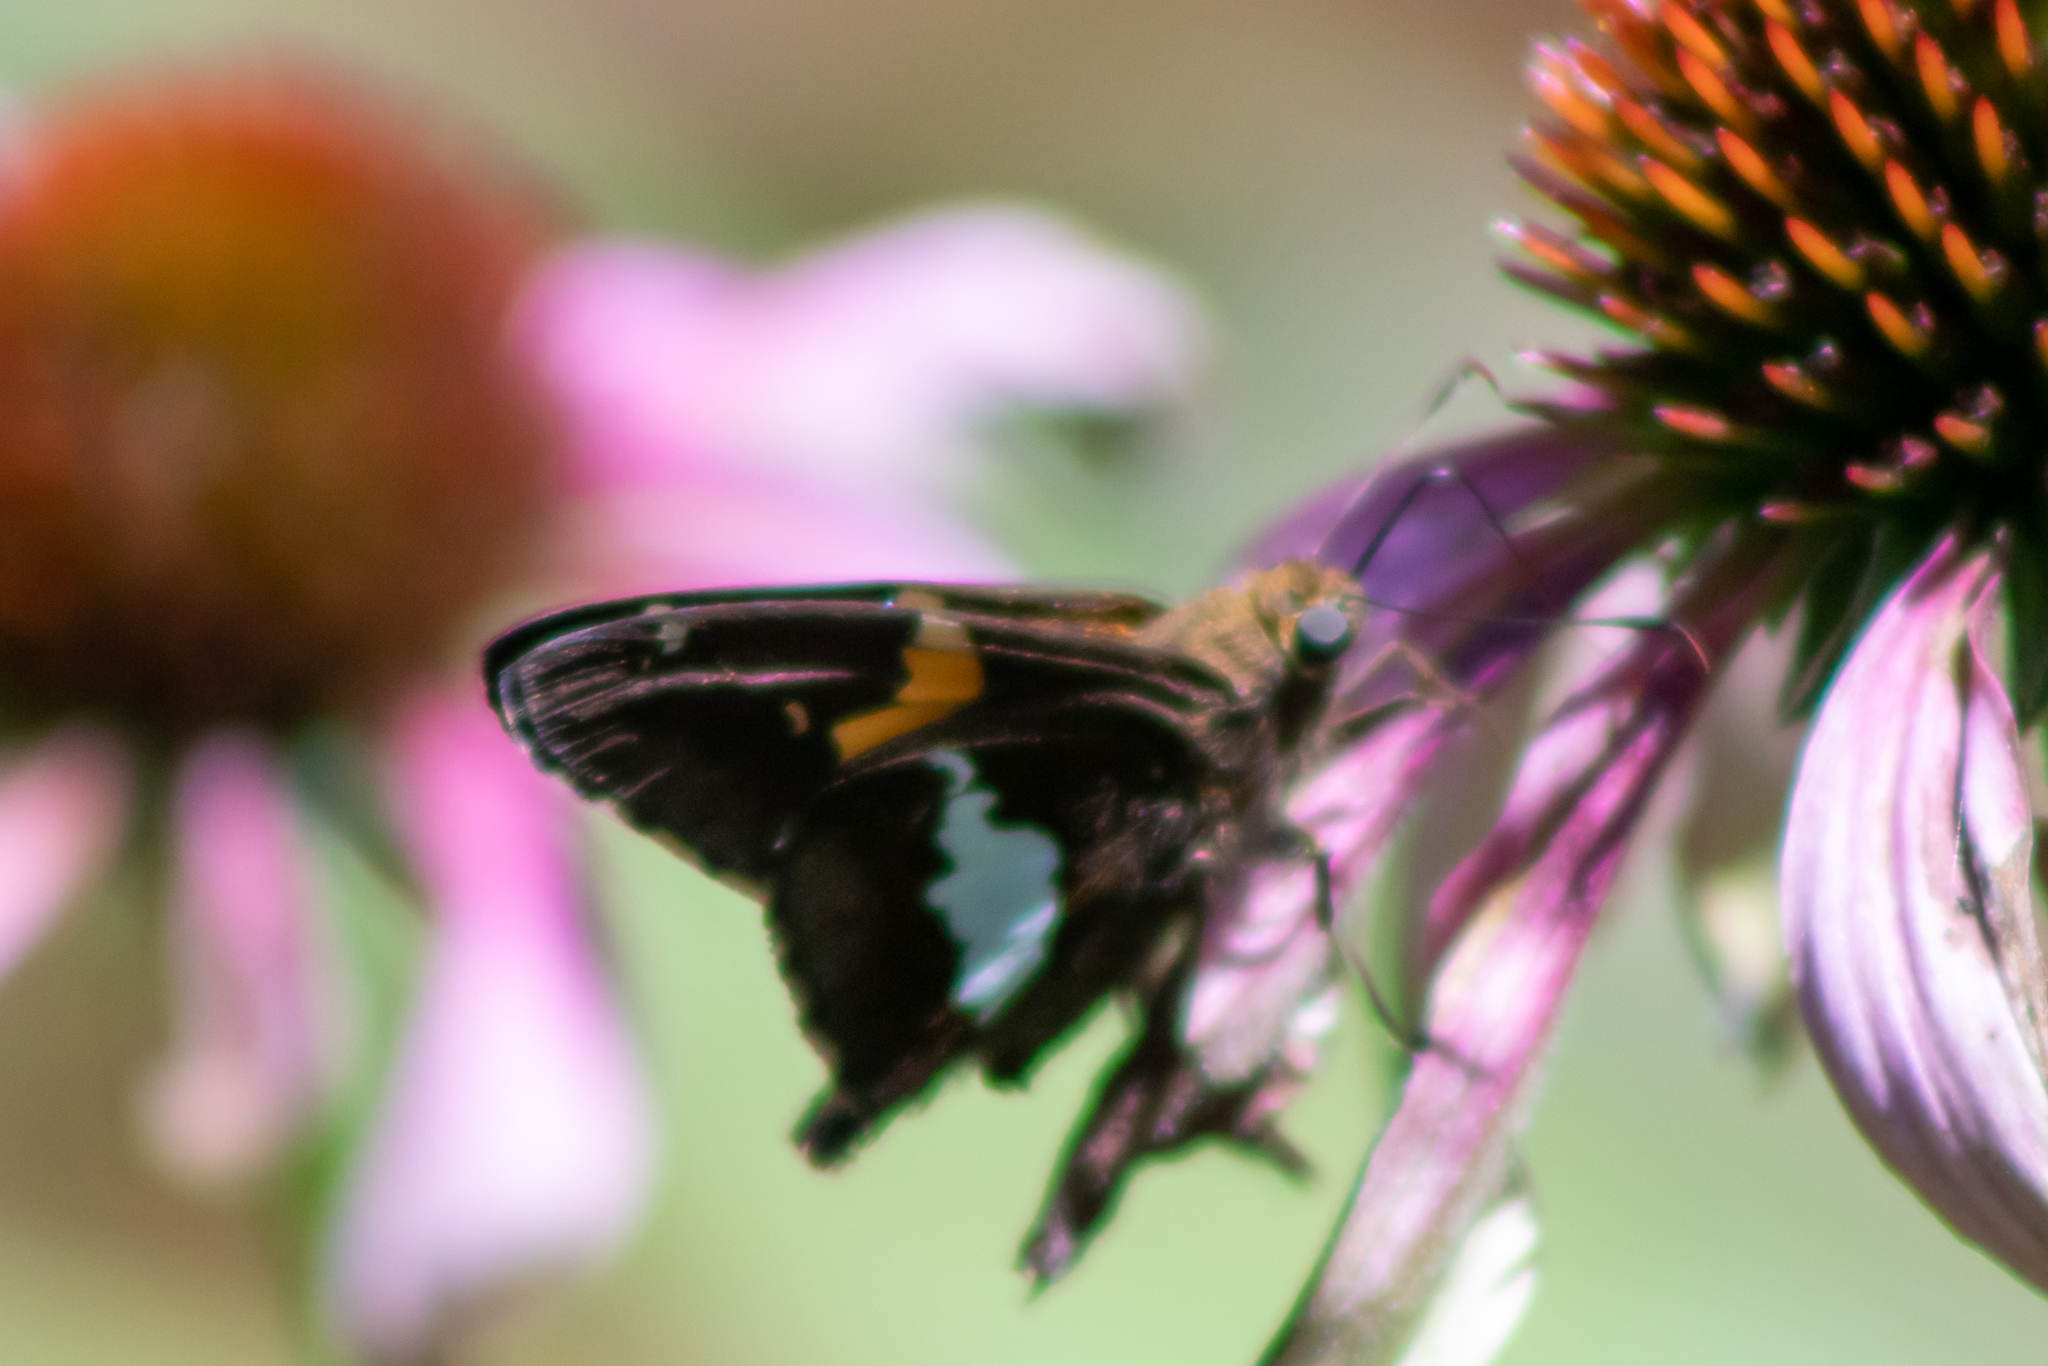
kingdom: Animalia
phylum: Arthropoda
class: Insecta
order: Lepidoptera
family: Hesperiidae
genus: Epargyreus
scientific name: Epargyreus clarus
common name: Silver-spotted skipper
